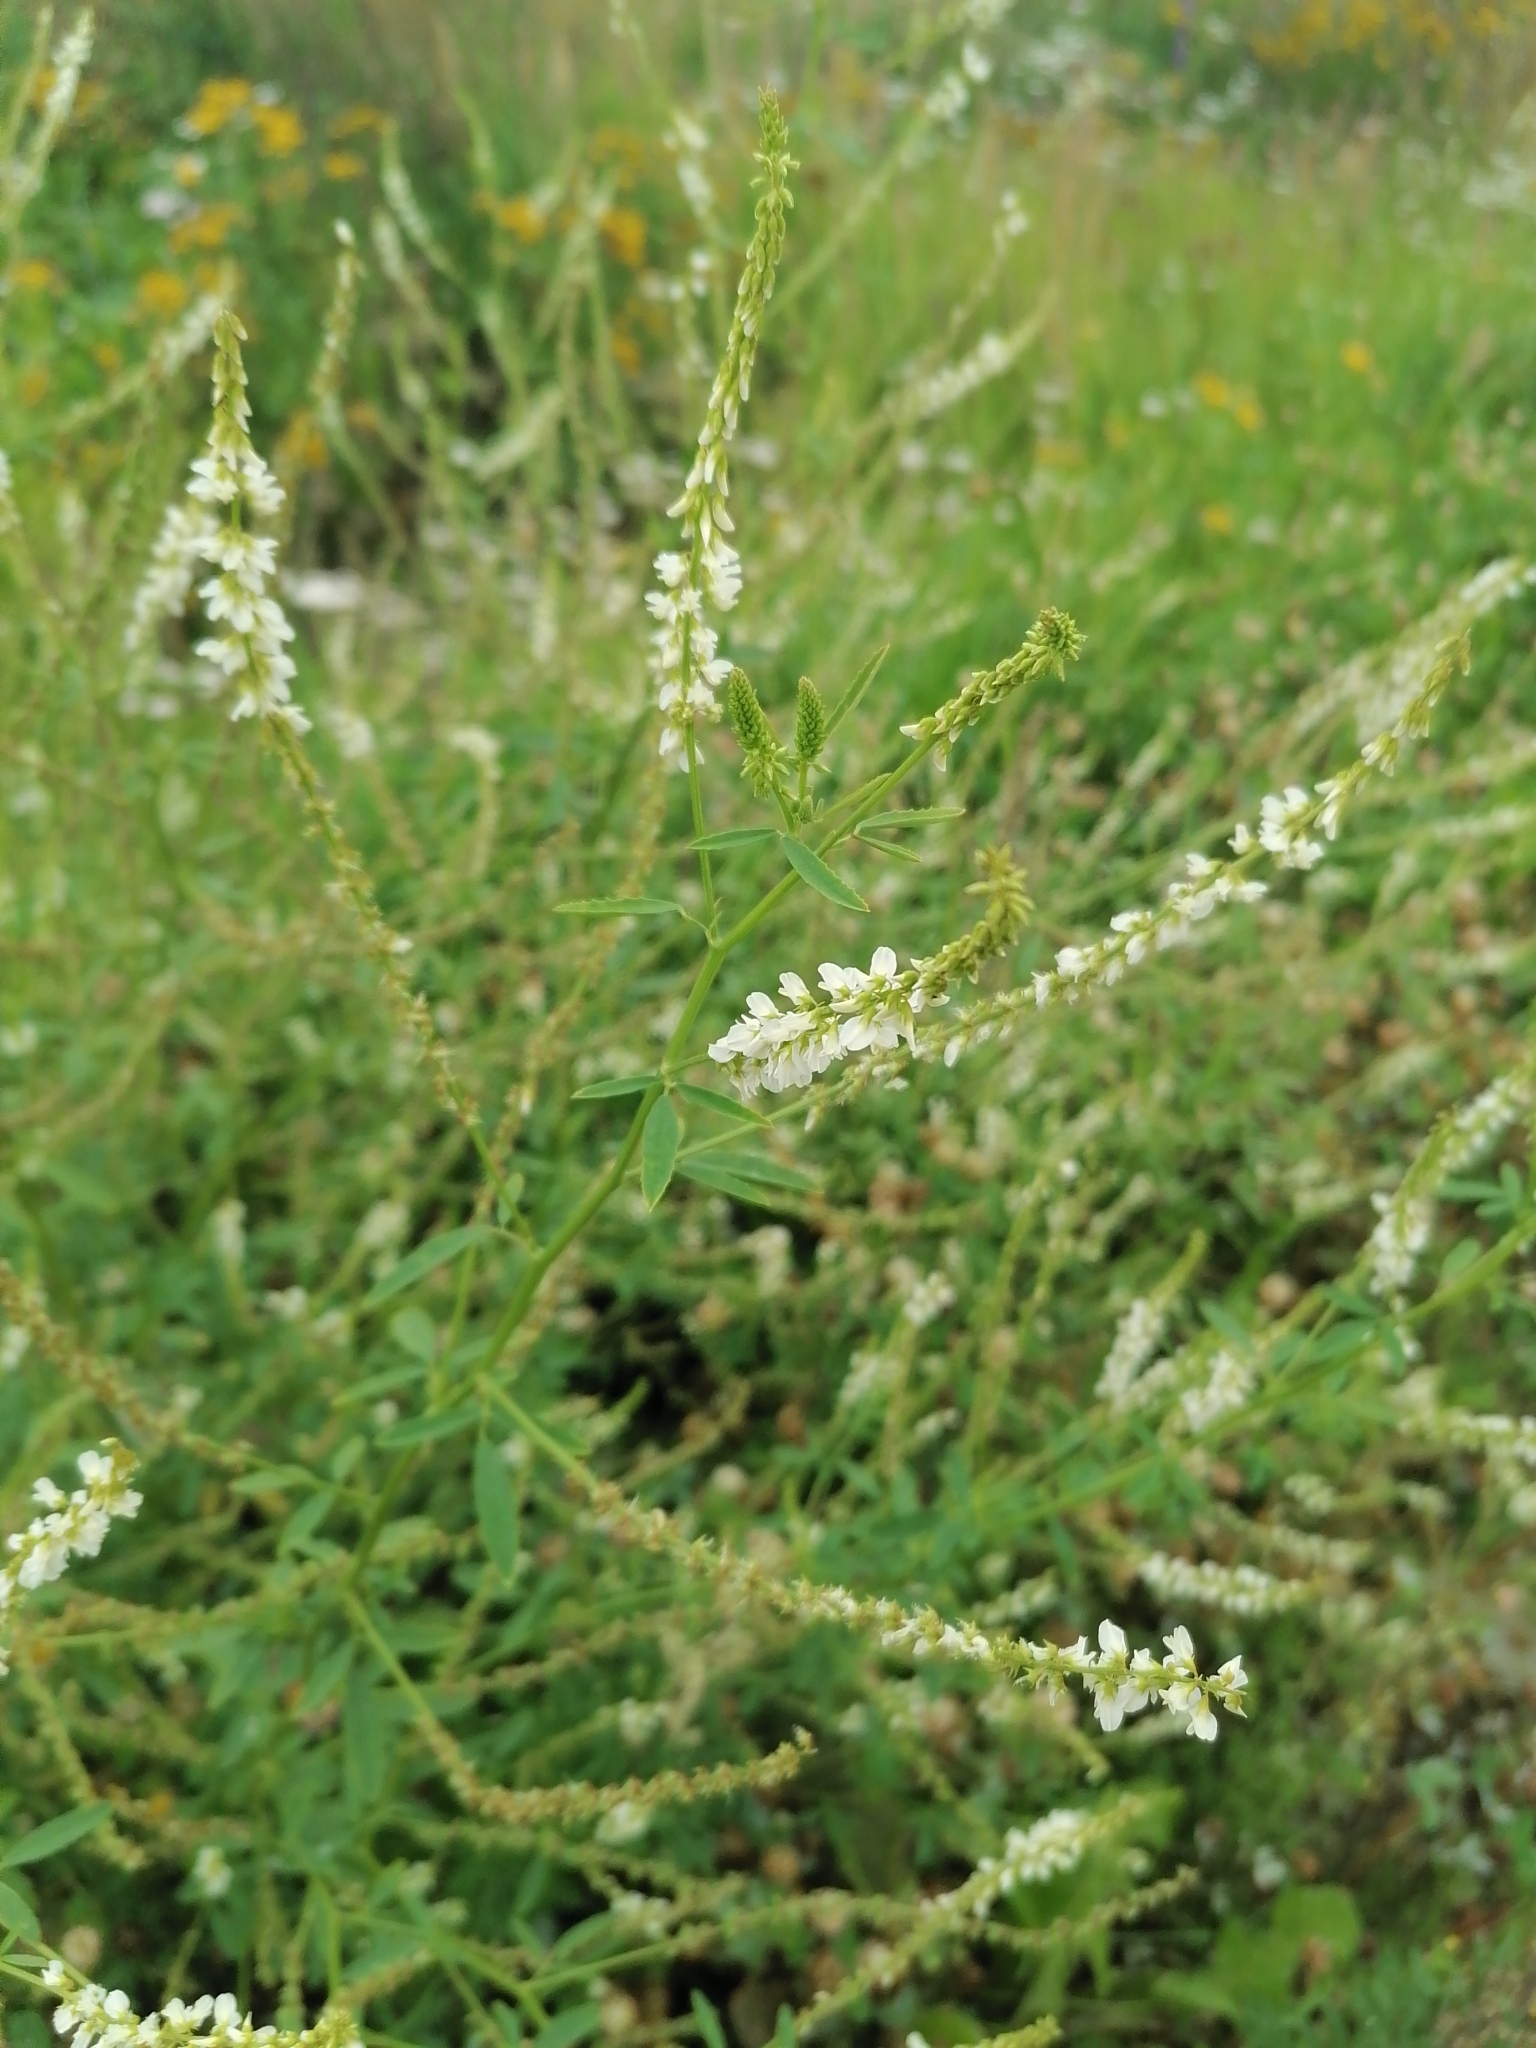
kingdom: Plantae
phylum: Tracheophyta
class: Magnoliopsida
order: Fabales
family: Fabaceae
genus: Melilotus
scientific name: Melilotus albus
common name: White melilot
